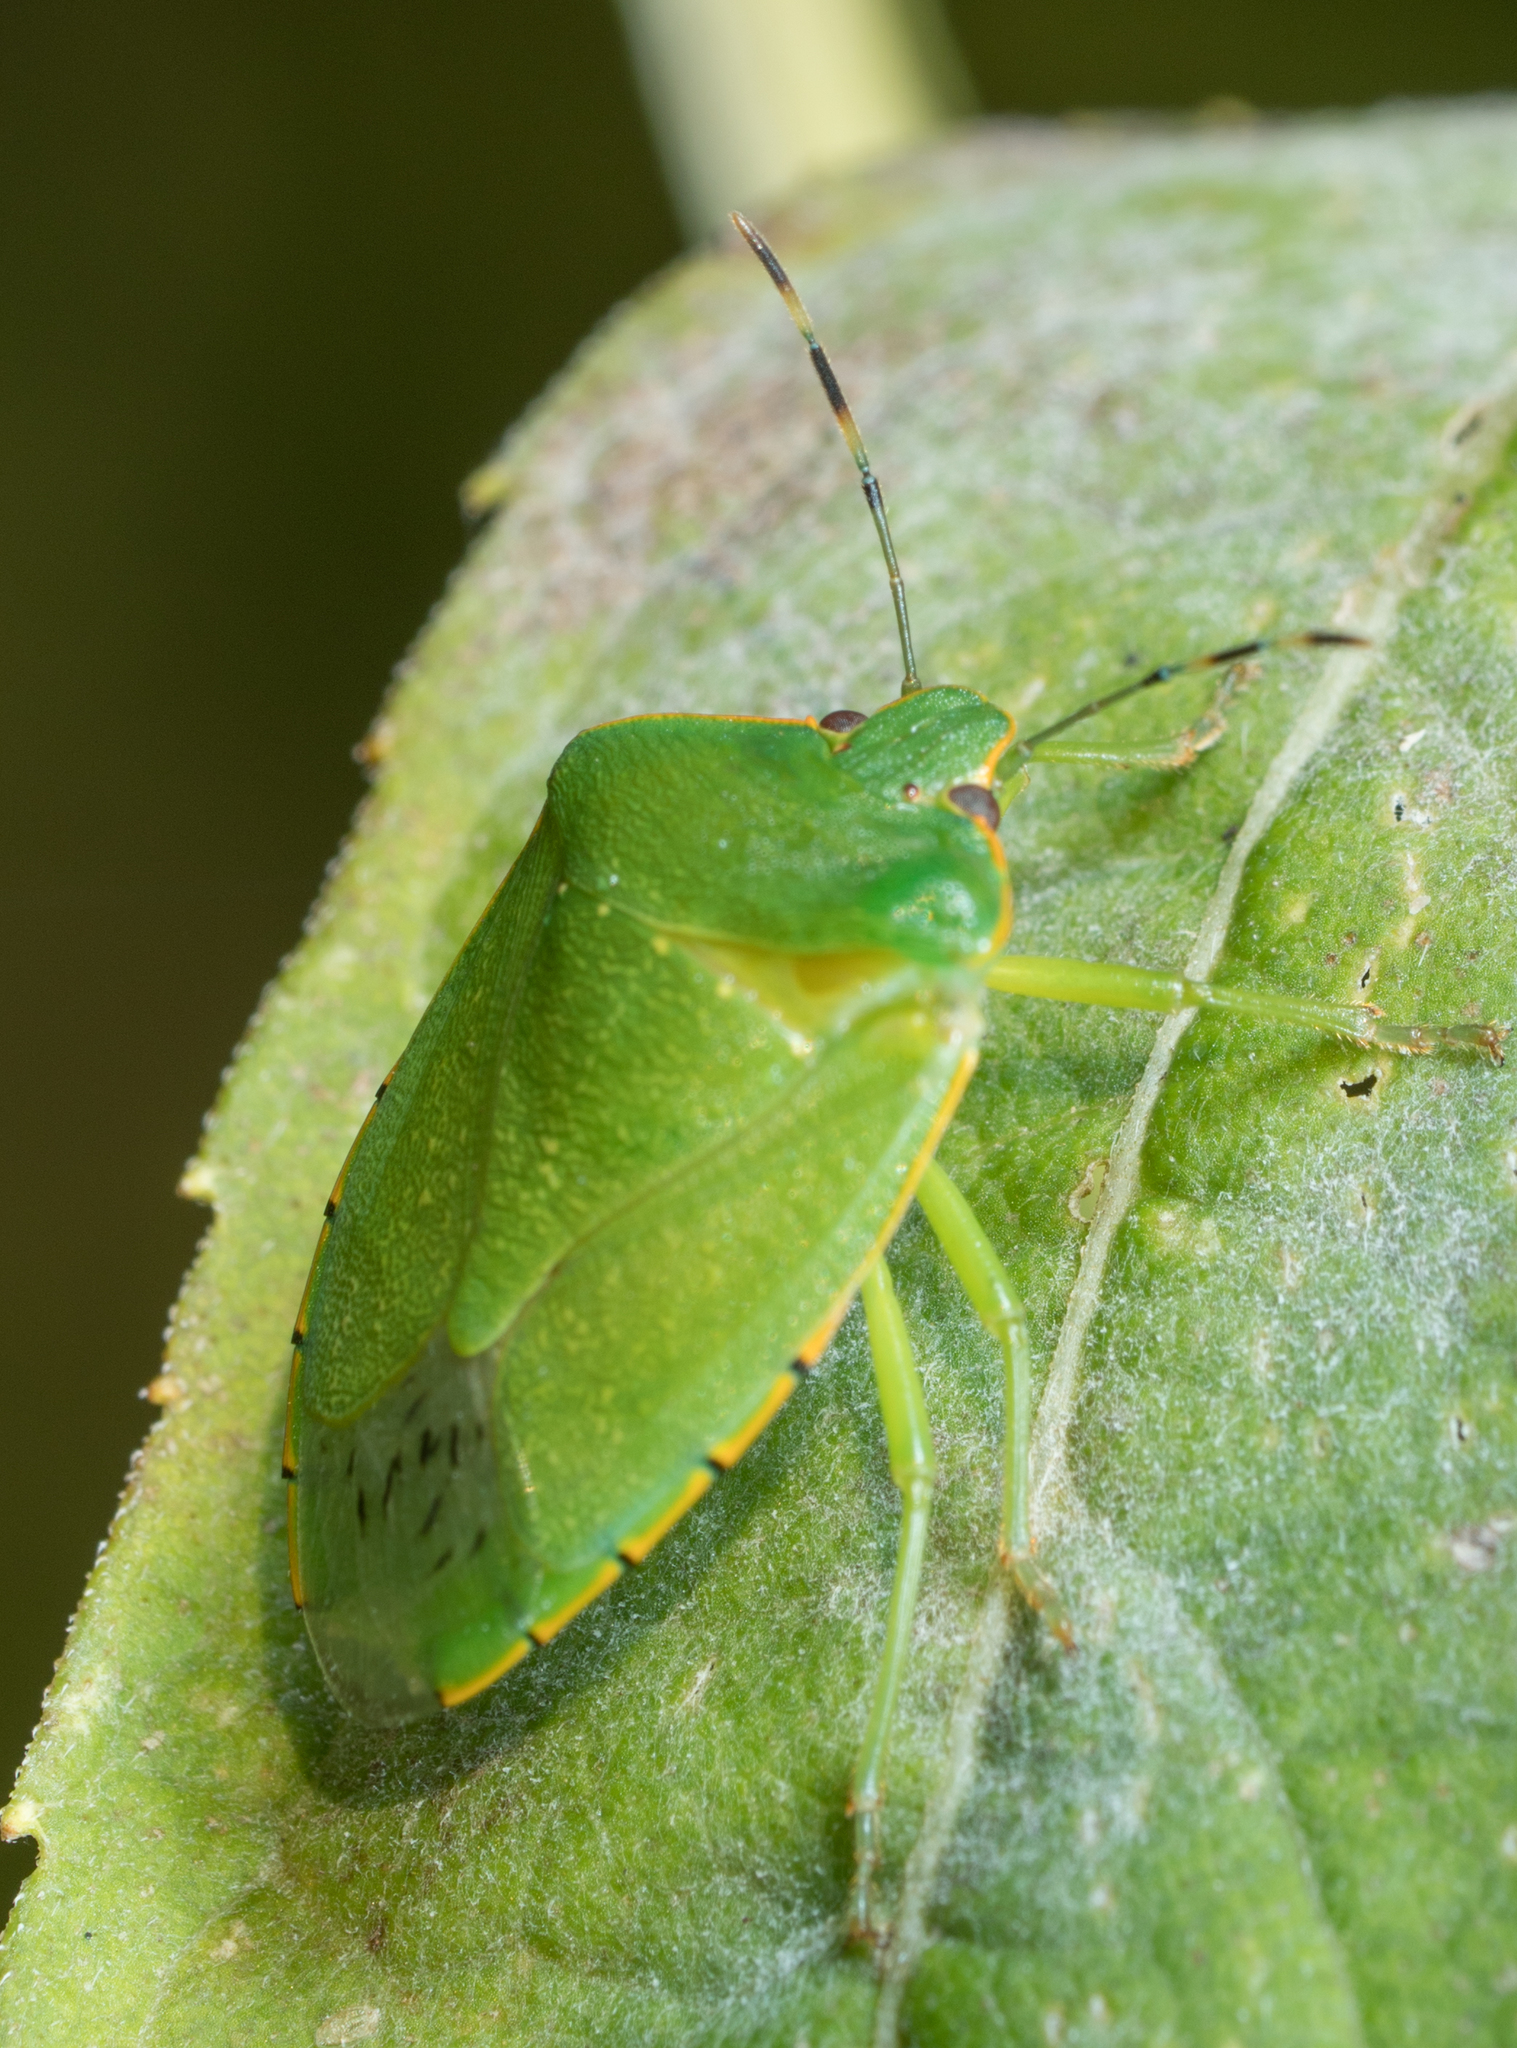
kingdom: Animalia
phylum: Arthropoda
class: Insecta
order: Hemiptera
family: Pentatomidae
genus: Chinavia
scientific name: Chinavia hilaris
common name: Green stink bug
